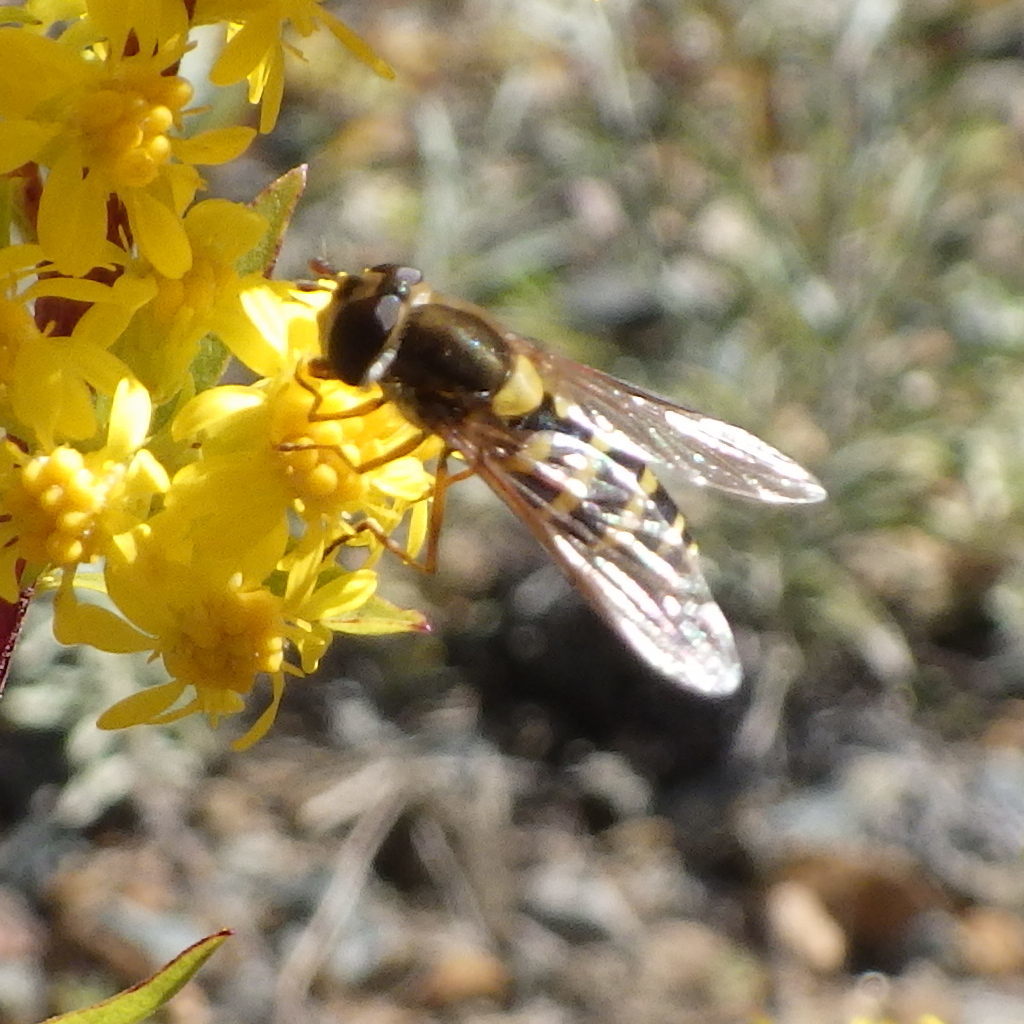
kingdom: Animalia
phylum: Arthropoda
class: Insecta
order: Diptera
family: Syrphidae
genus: Syrphus
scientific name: Syrphus ribesii
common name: Common flower fly
